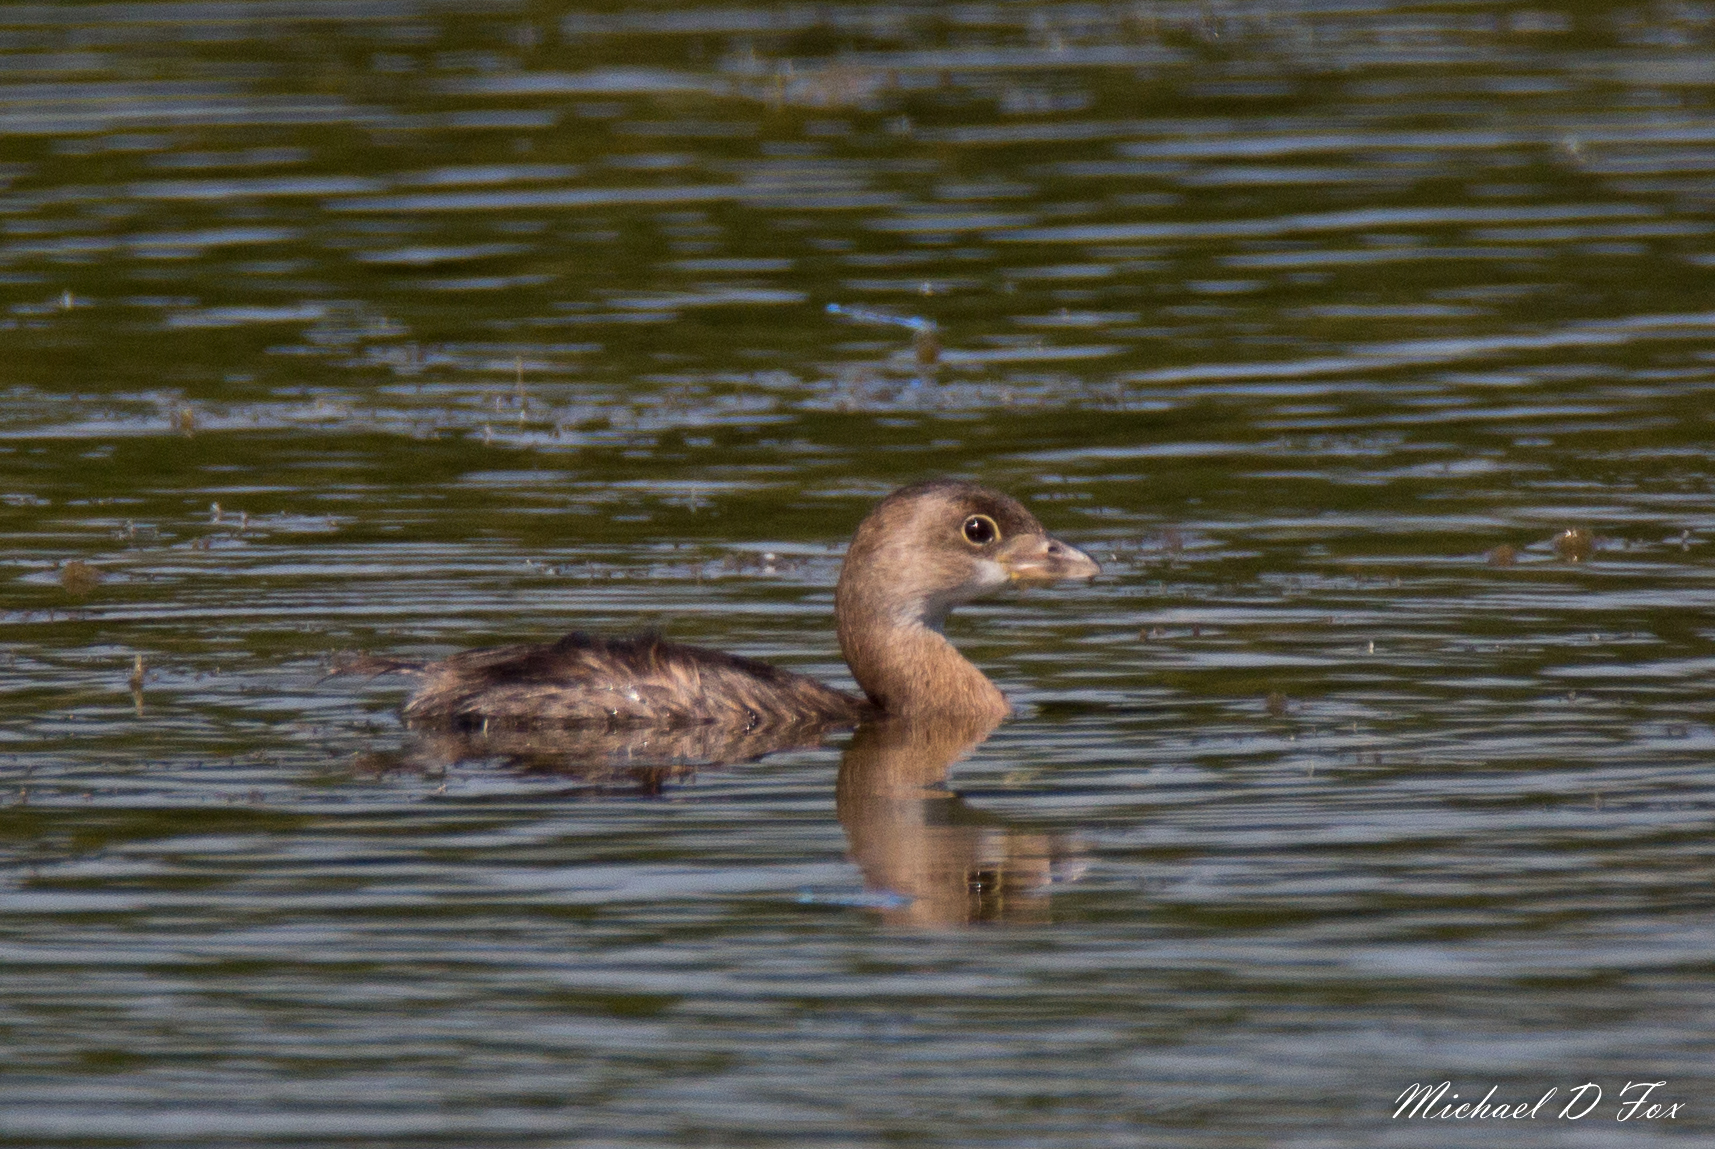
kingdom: Animalia
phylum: Chordata
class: Aves
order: Podicipediformes
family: Podicipedidae
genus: Podilymbus
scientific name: Podilymbus podiceps
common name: Pied-billed grebe
